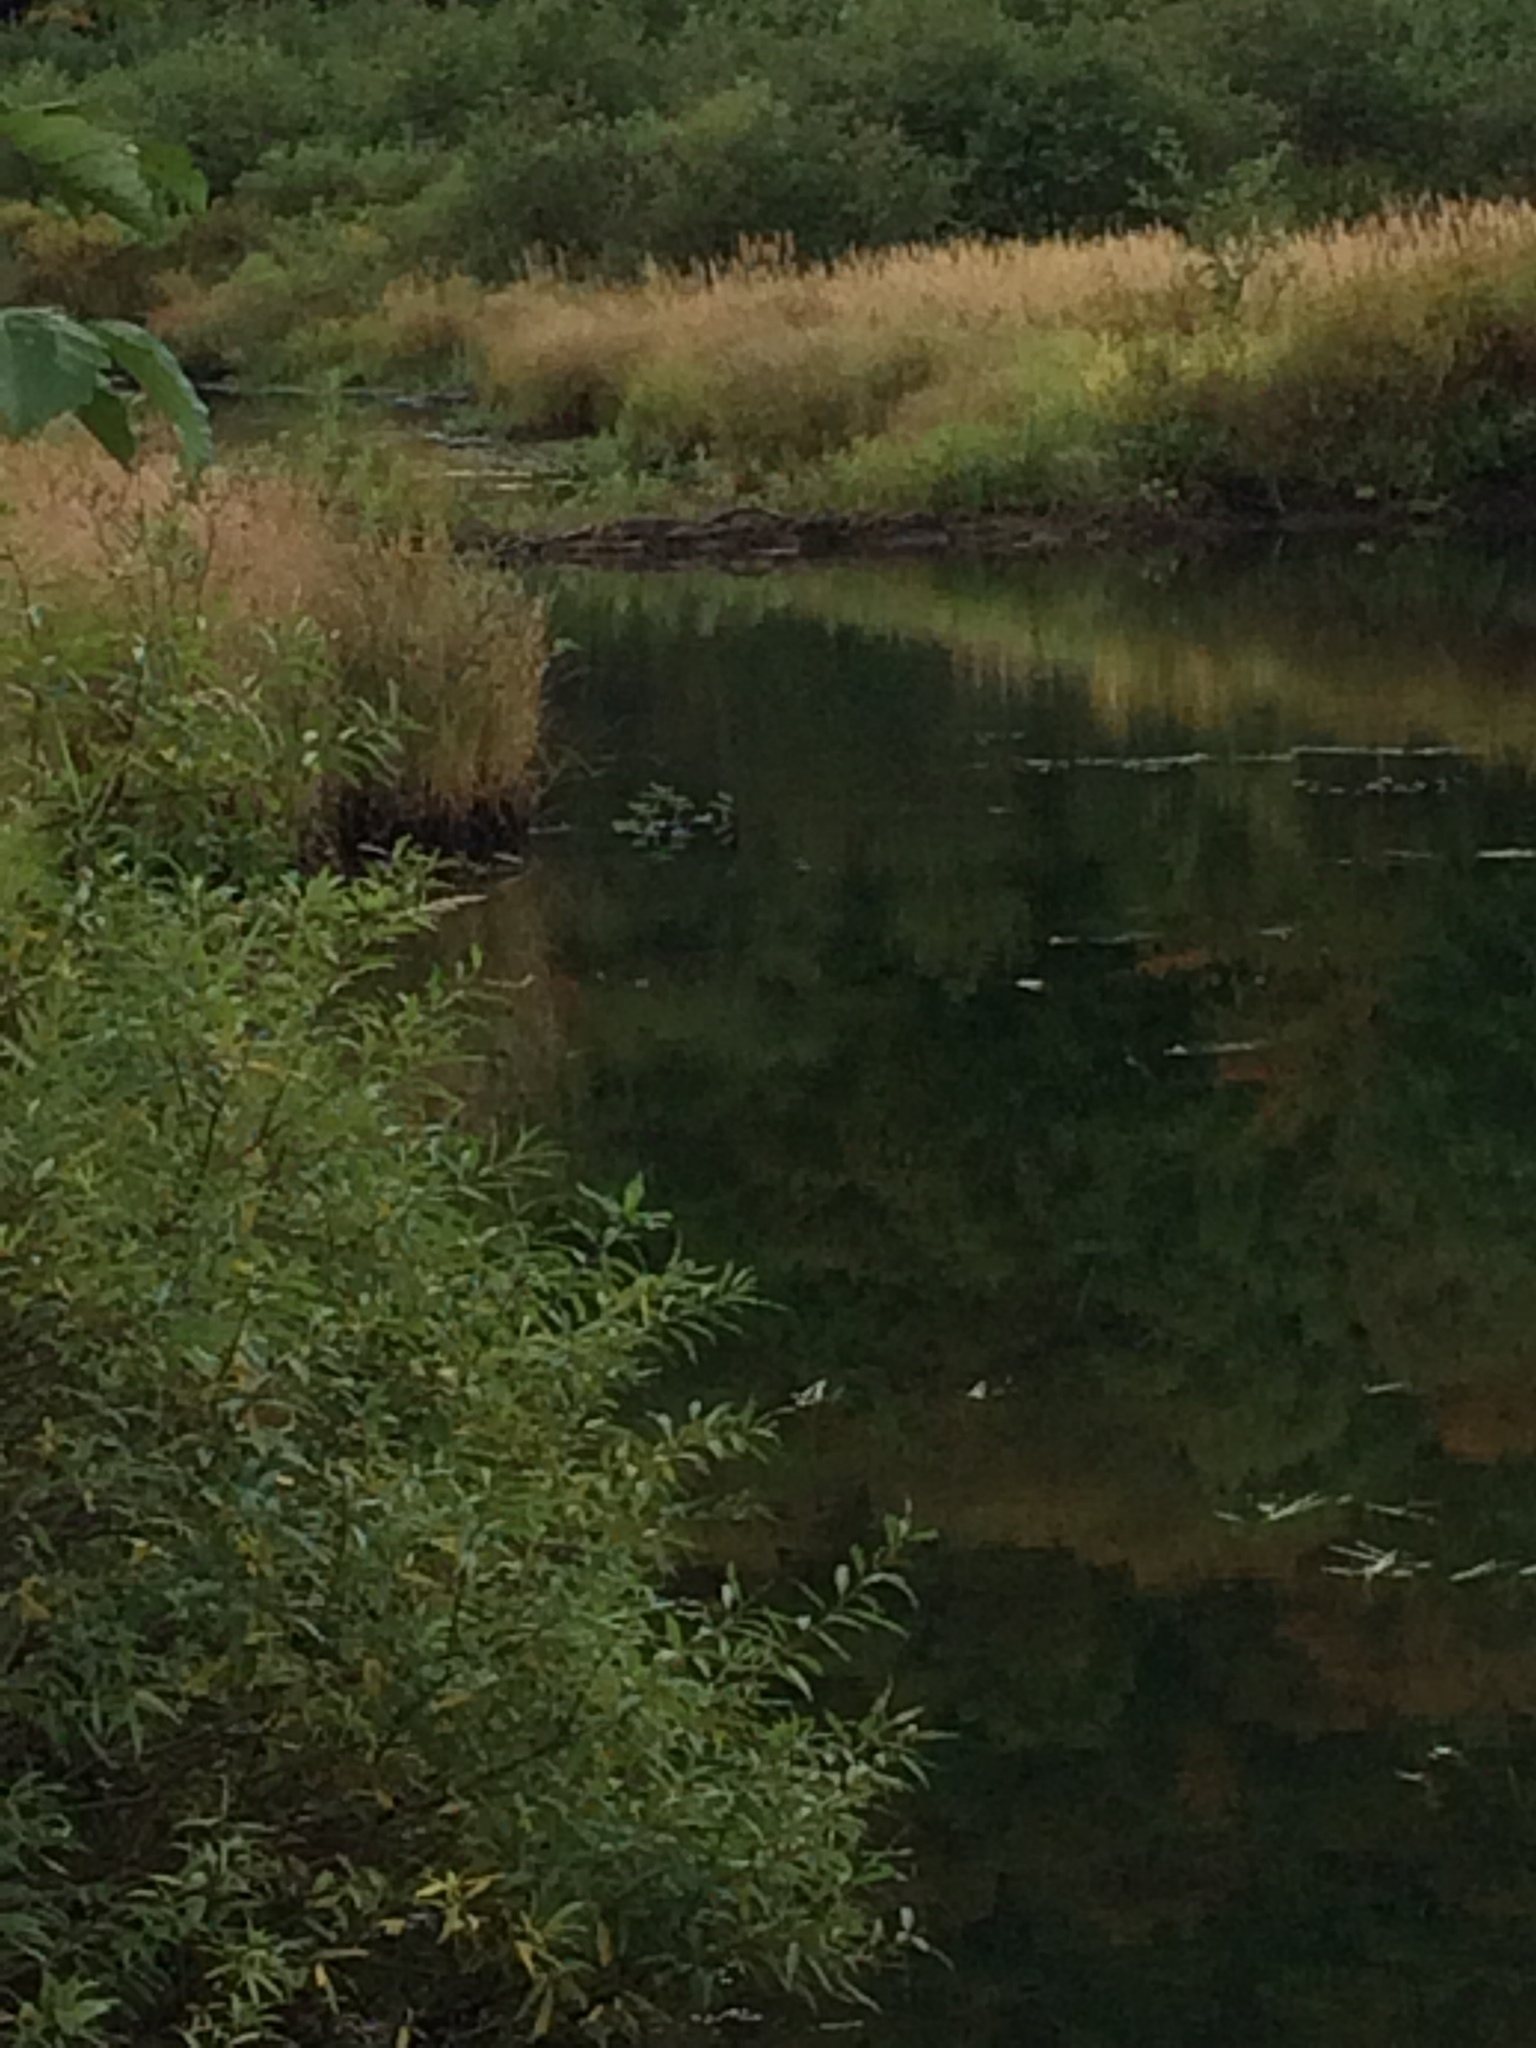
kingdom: Animalia
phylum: Chordata
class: Mammalia
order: Rodentia
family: Castoridae
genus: Castor
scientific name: Castor canadensis
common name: American beaver
